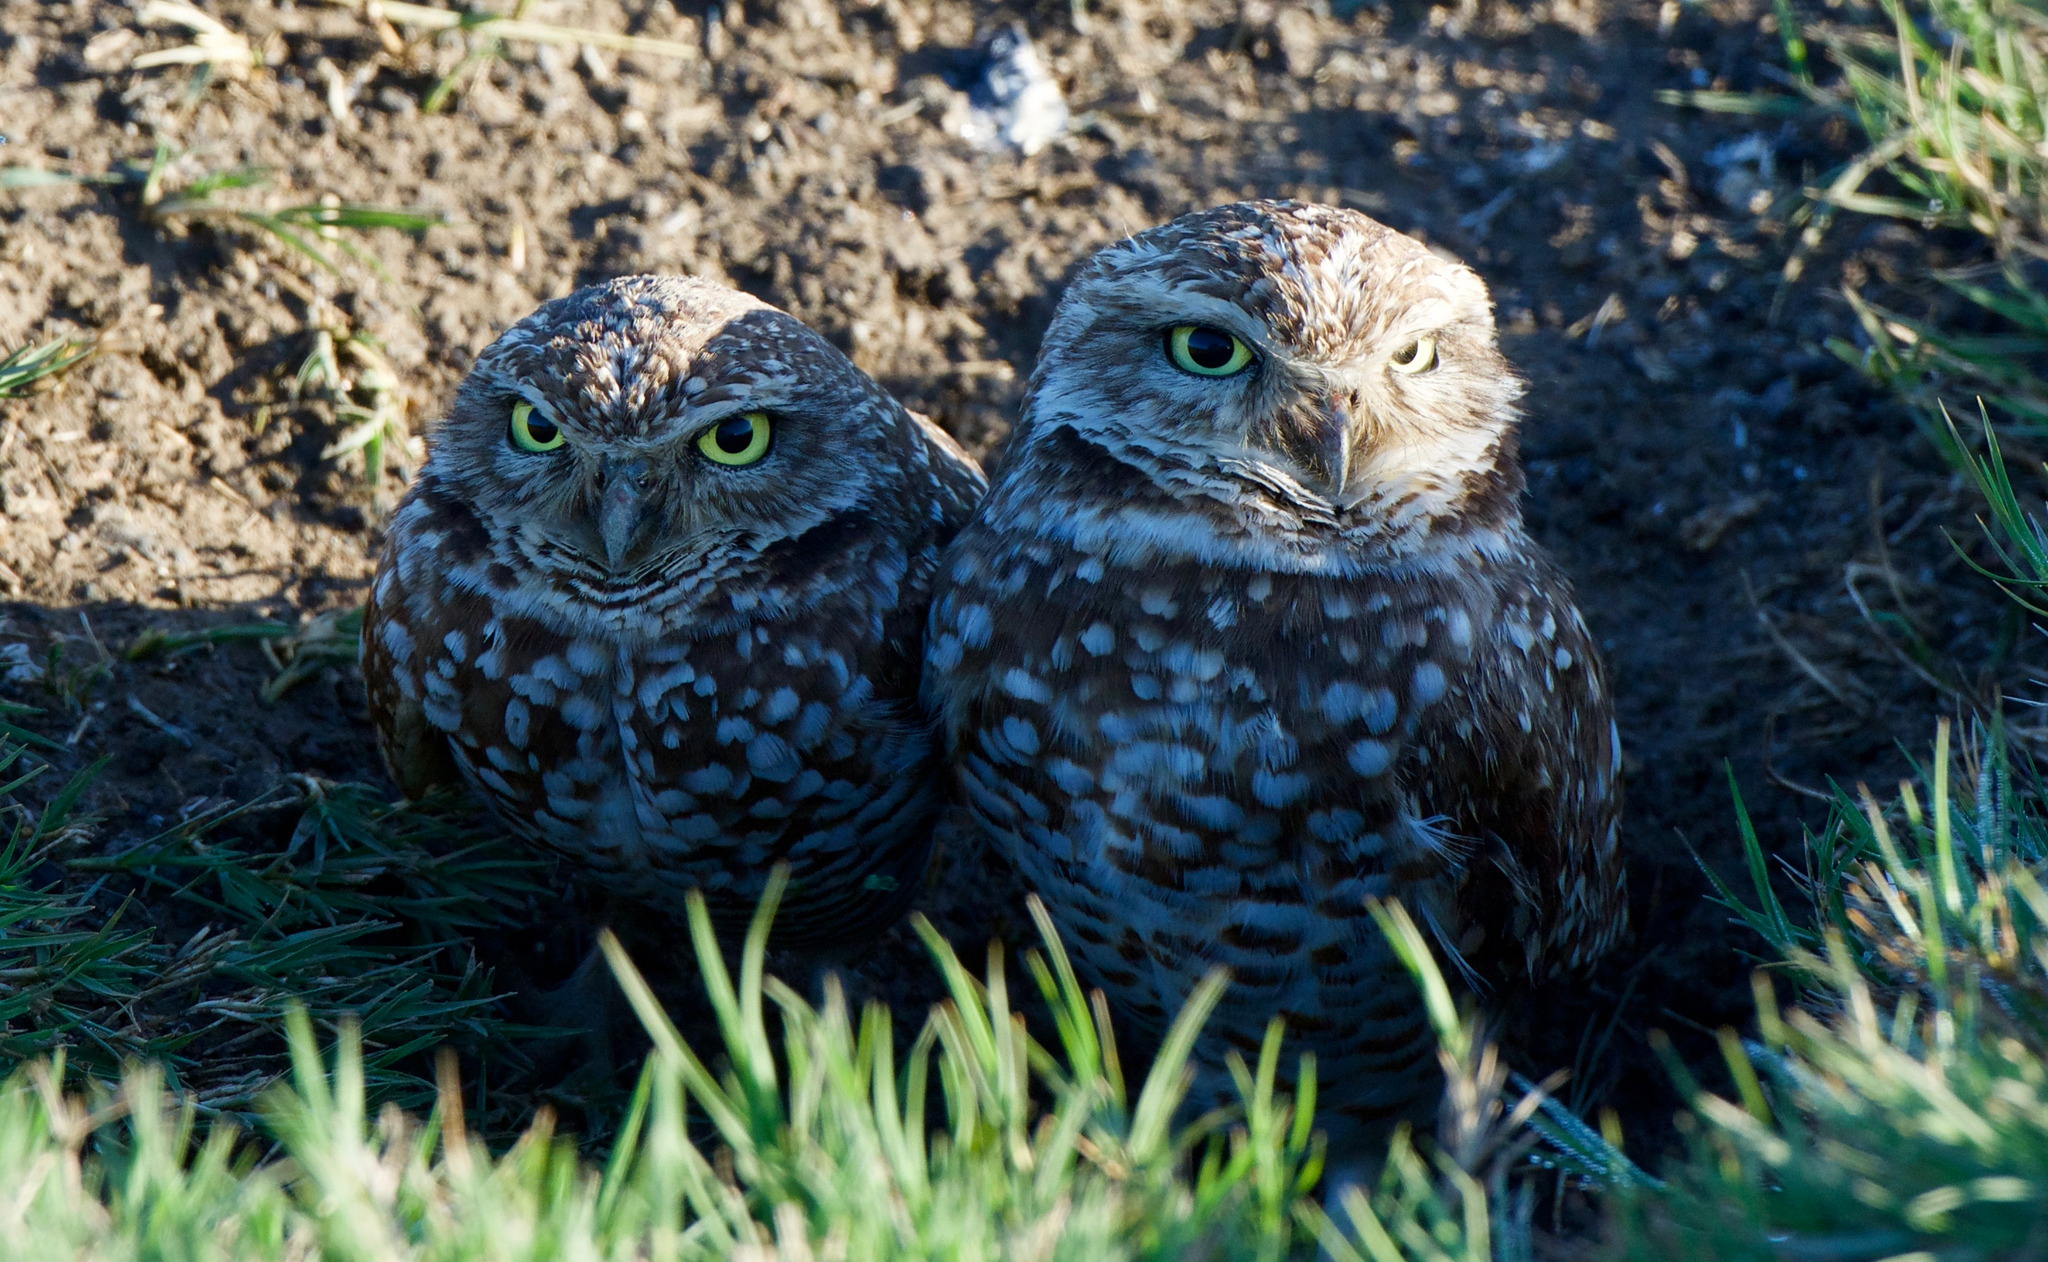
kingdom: Animalia
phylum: Chordata
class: Aves
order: Strigiformes
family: Strigidae
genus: Athene
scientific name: Athene cunicularia
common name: Burrowing owl
